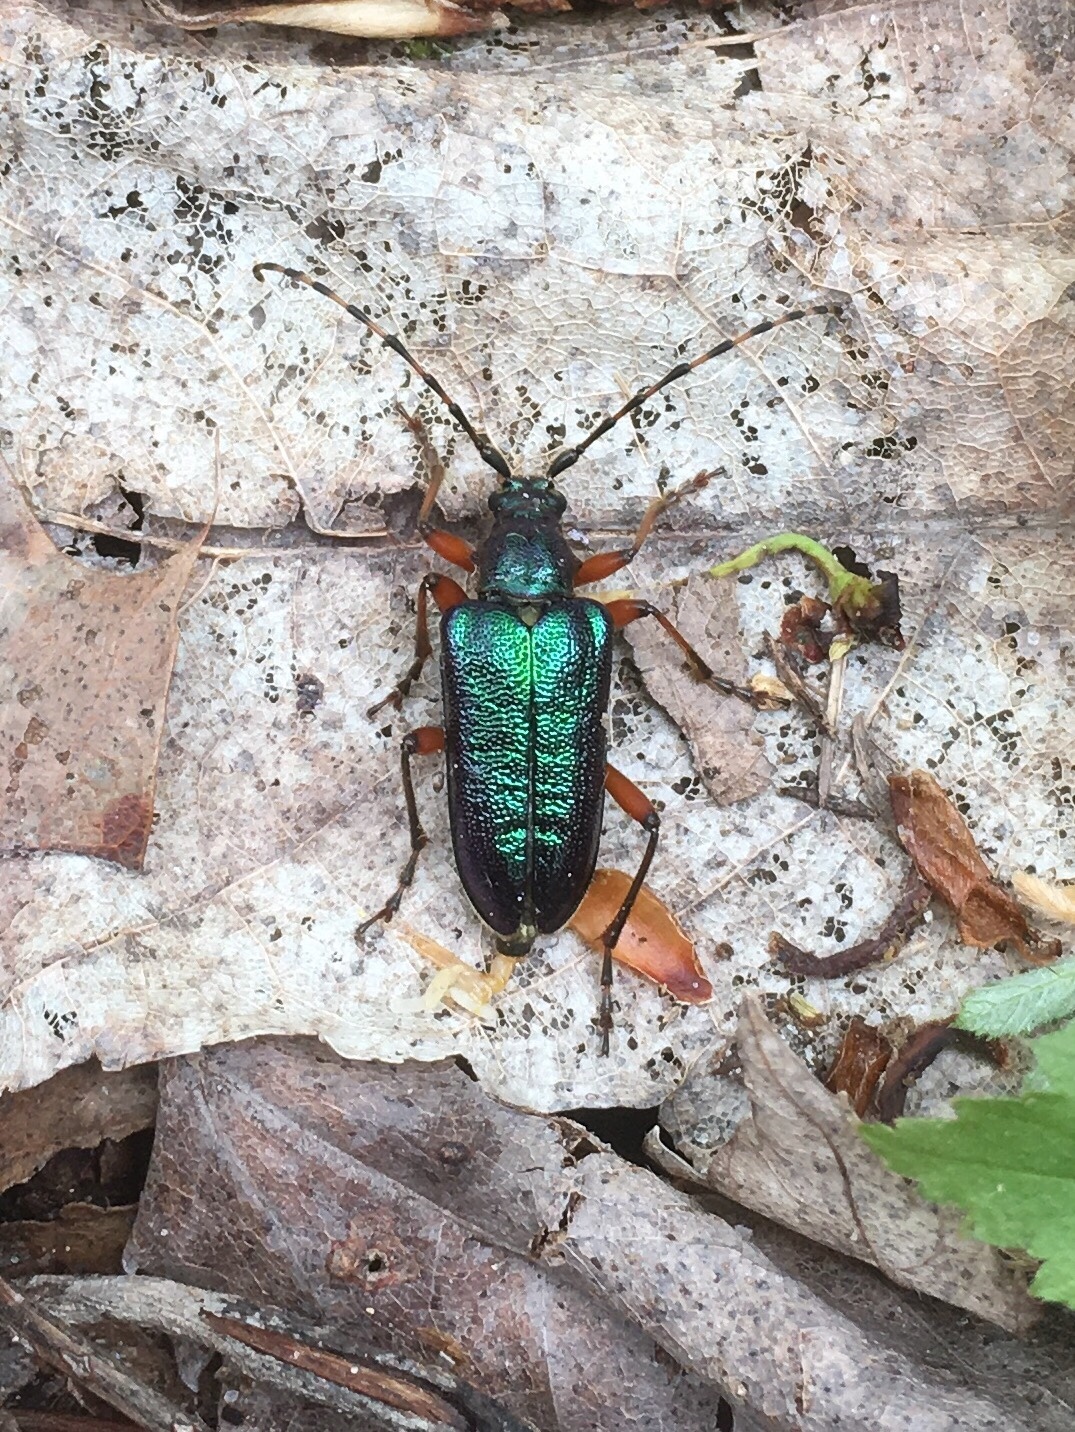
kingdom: Animalia
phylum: Arthropoda
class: Insecta
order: Coleoptera
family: Cerambycidae
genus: Anthophylax
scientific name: Anthophylax cyaneus
